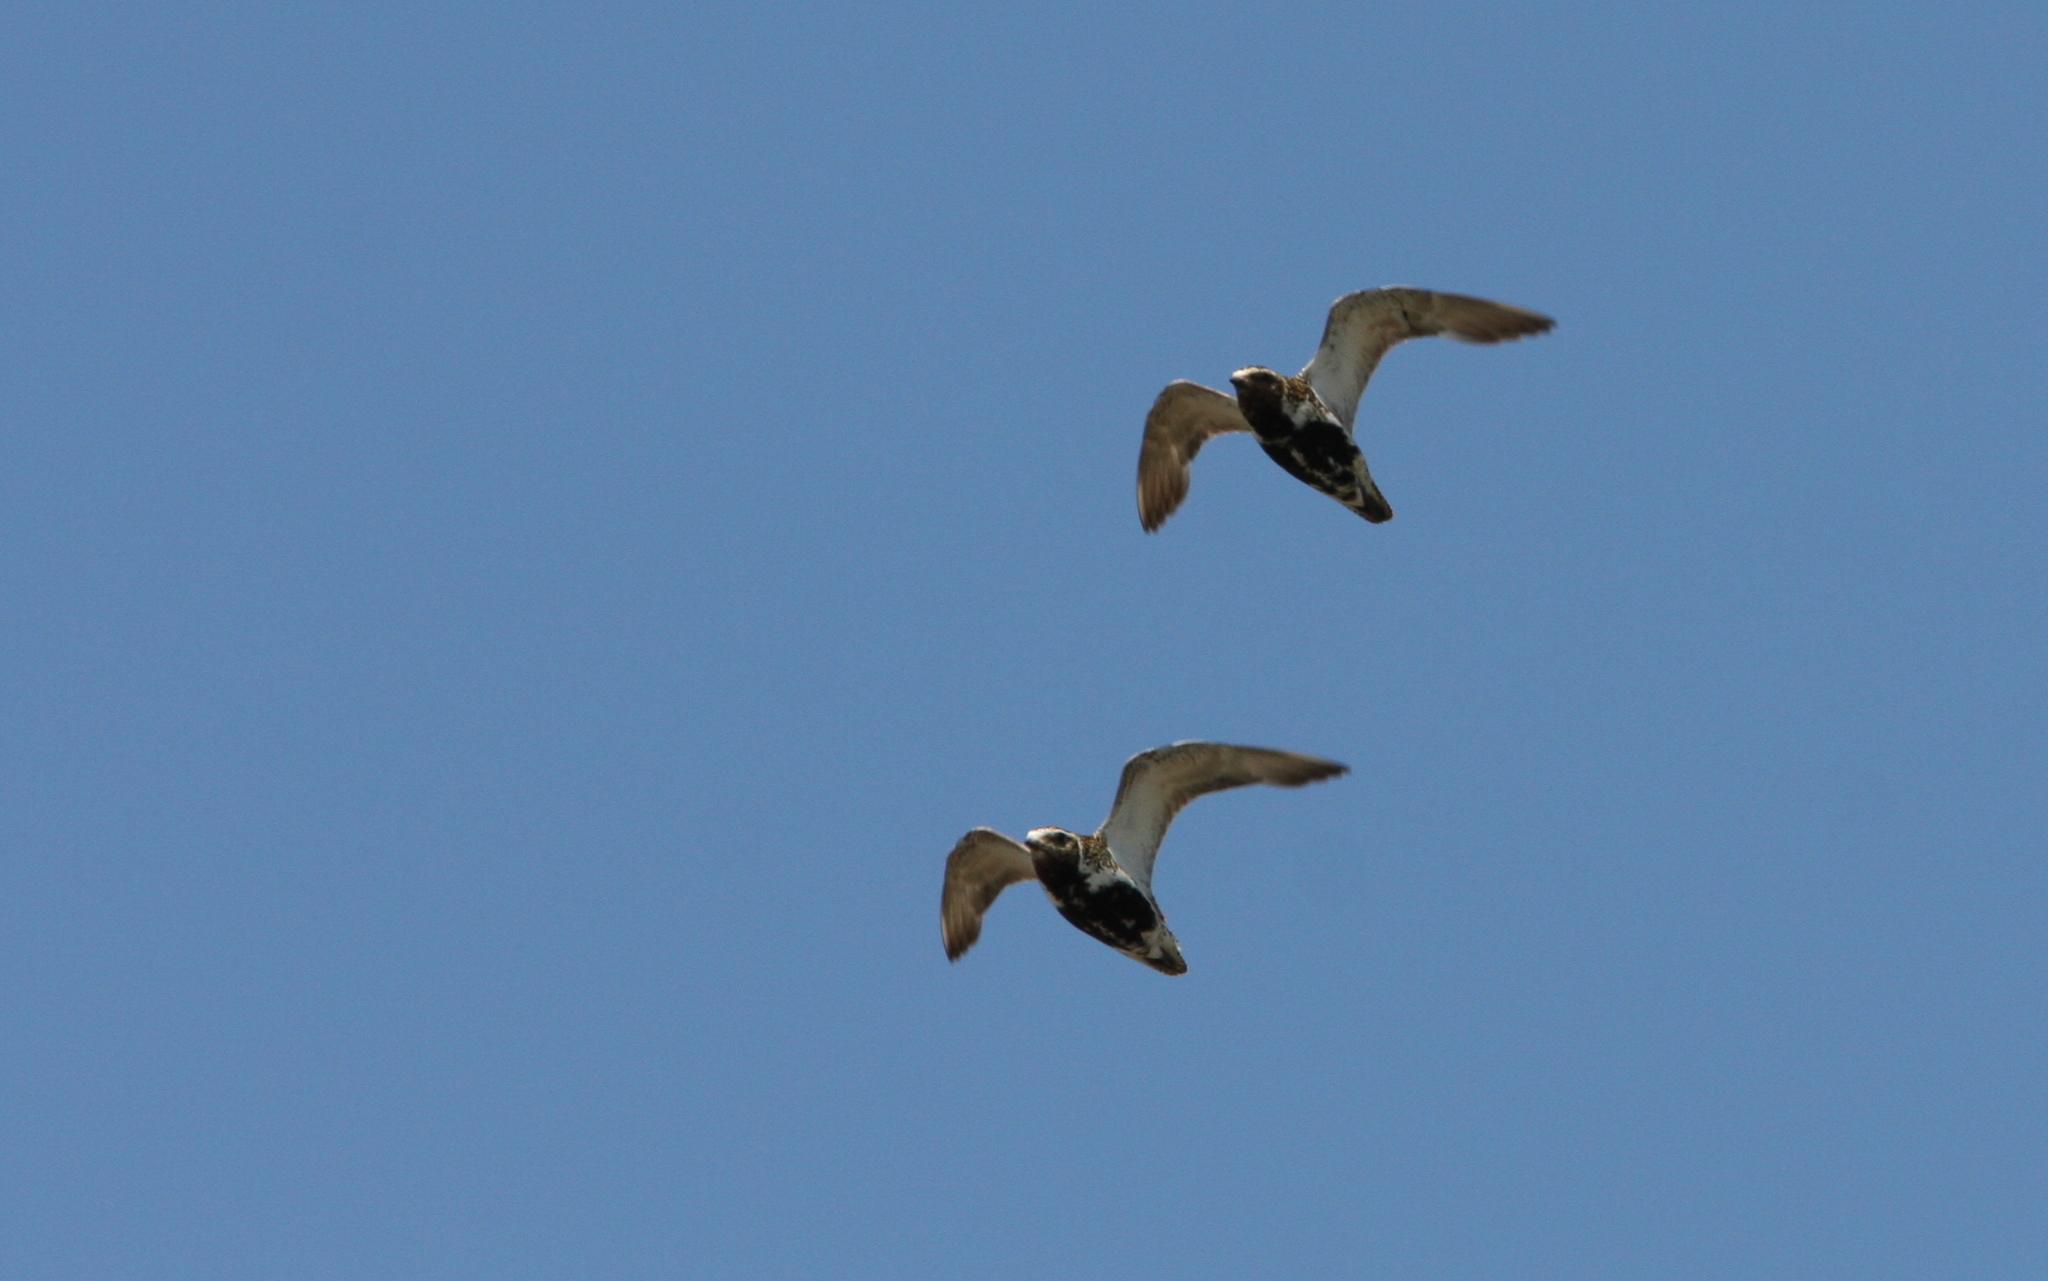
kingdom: Animalia
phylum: Chordata
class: Aves
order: Charadriiformes
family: Charadriidae
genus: Pluvialis
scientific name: Pluvialis apricaria
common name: European golden plover
